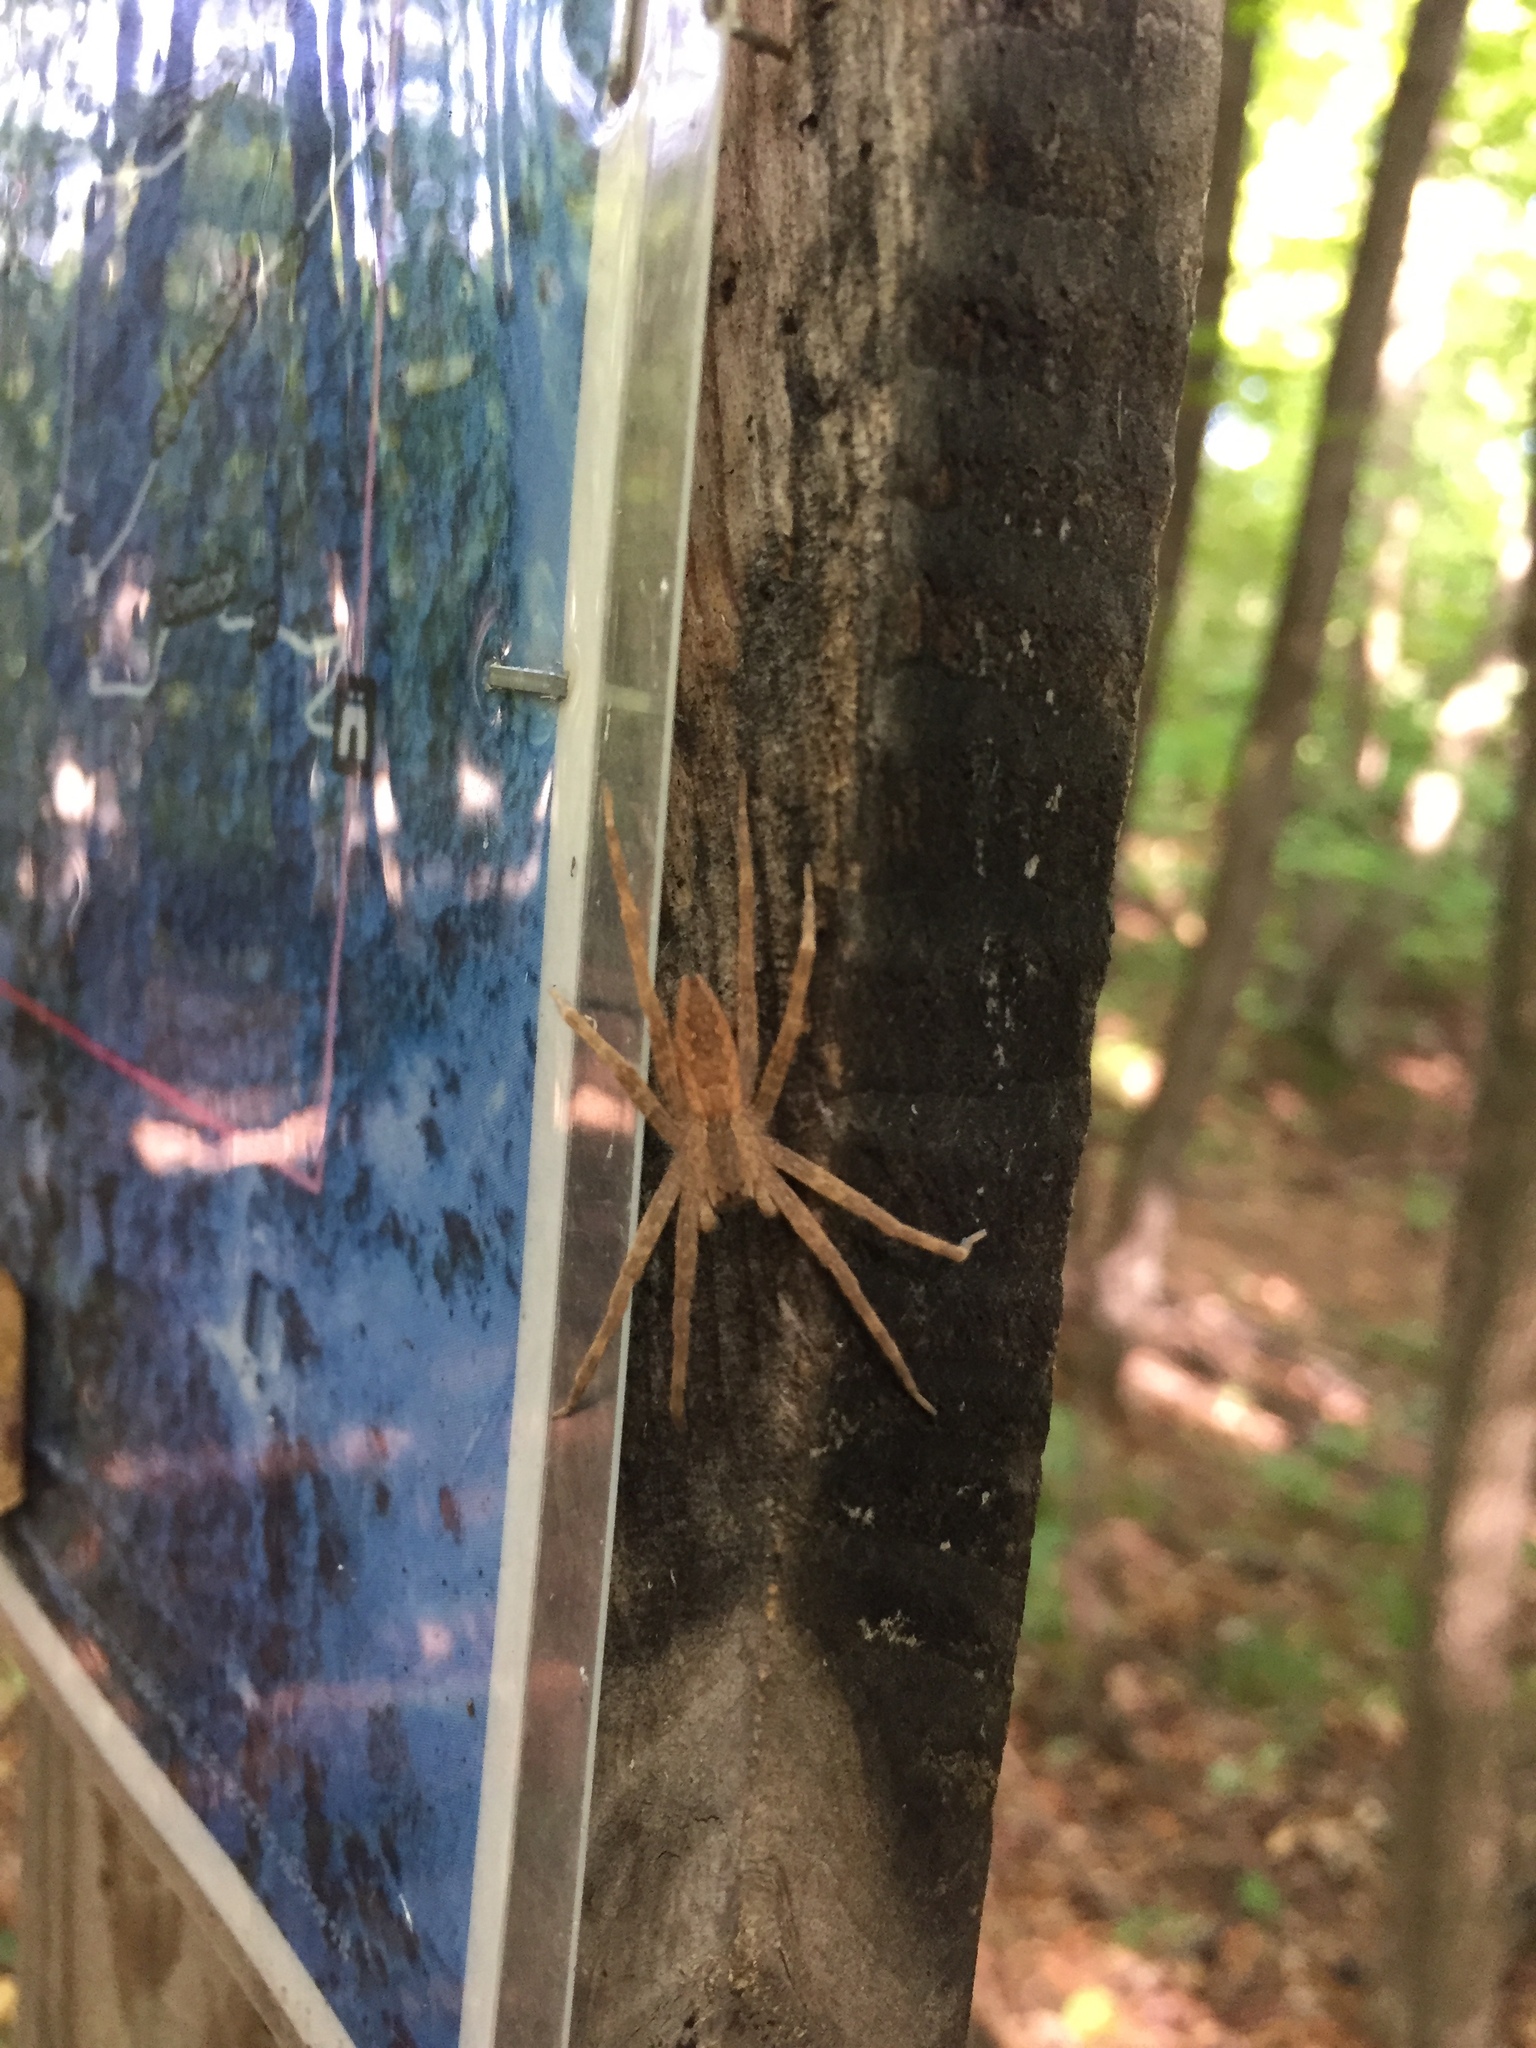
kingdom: Animalia
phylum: Arthropoda
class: Arachnida
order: Araneae
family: Pisauridae
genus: Pisaurina
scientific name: Pisaurina mira
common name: American nursery web spider
